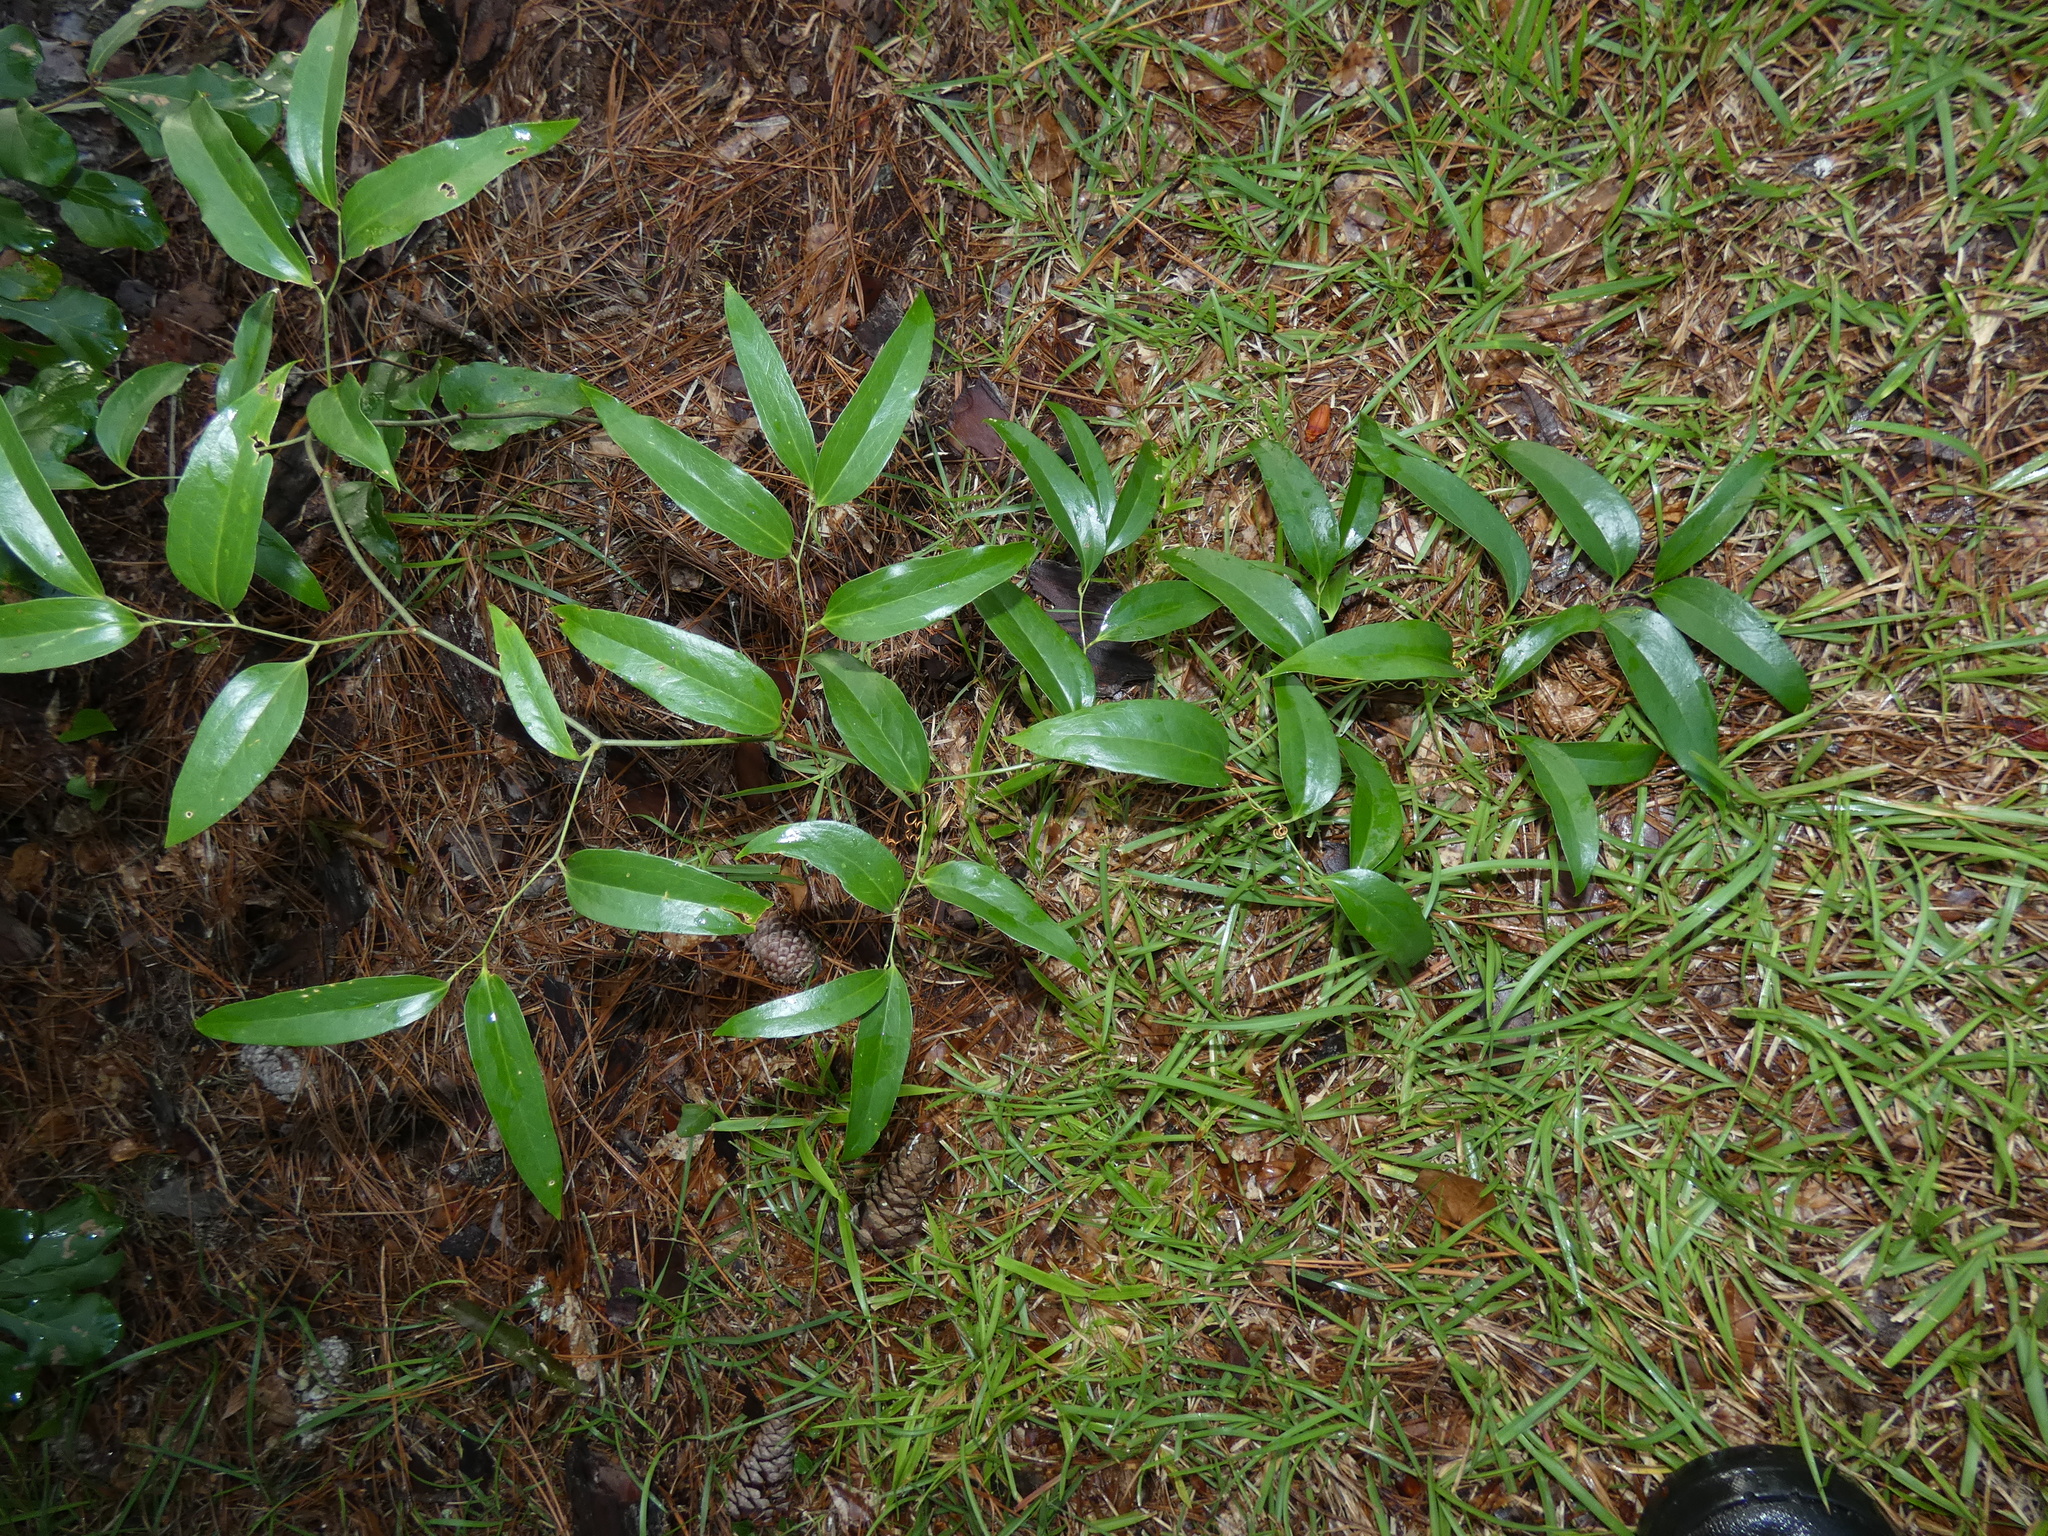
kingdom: Plantae
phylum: Tracheophyta
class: Liliopsida
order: Liliales
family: Smilacaceae
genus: Smilax
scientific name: Smilax maritima
